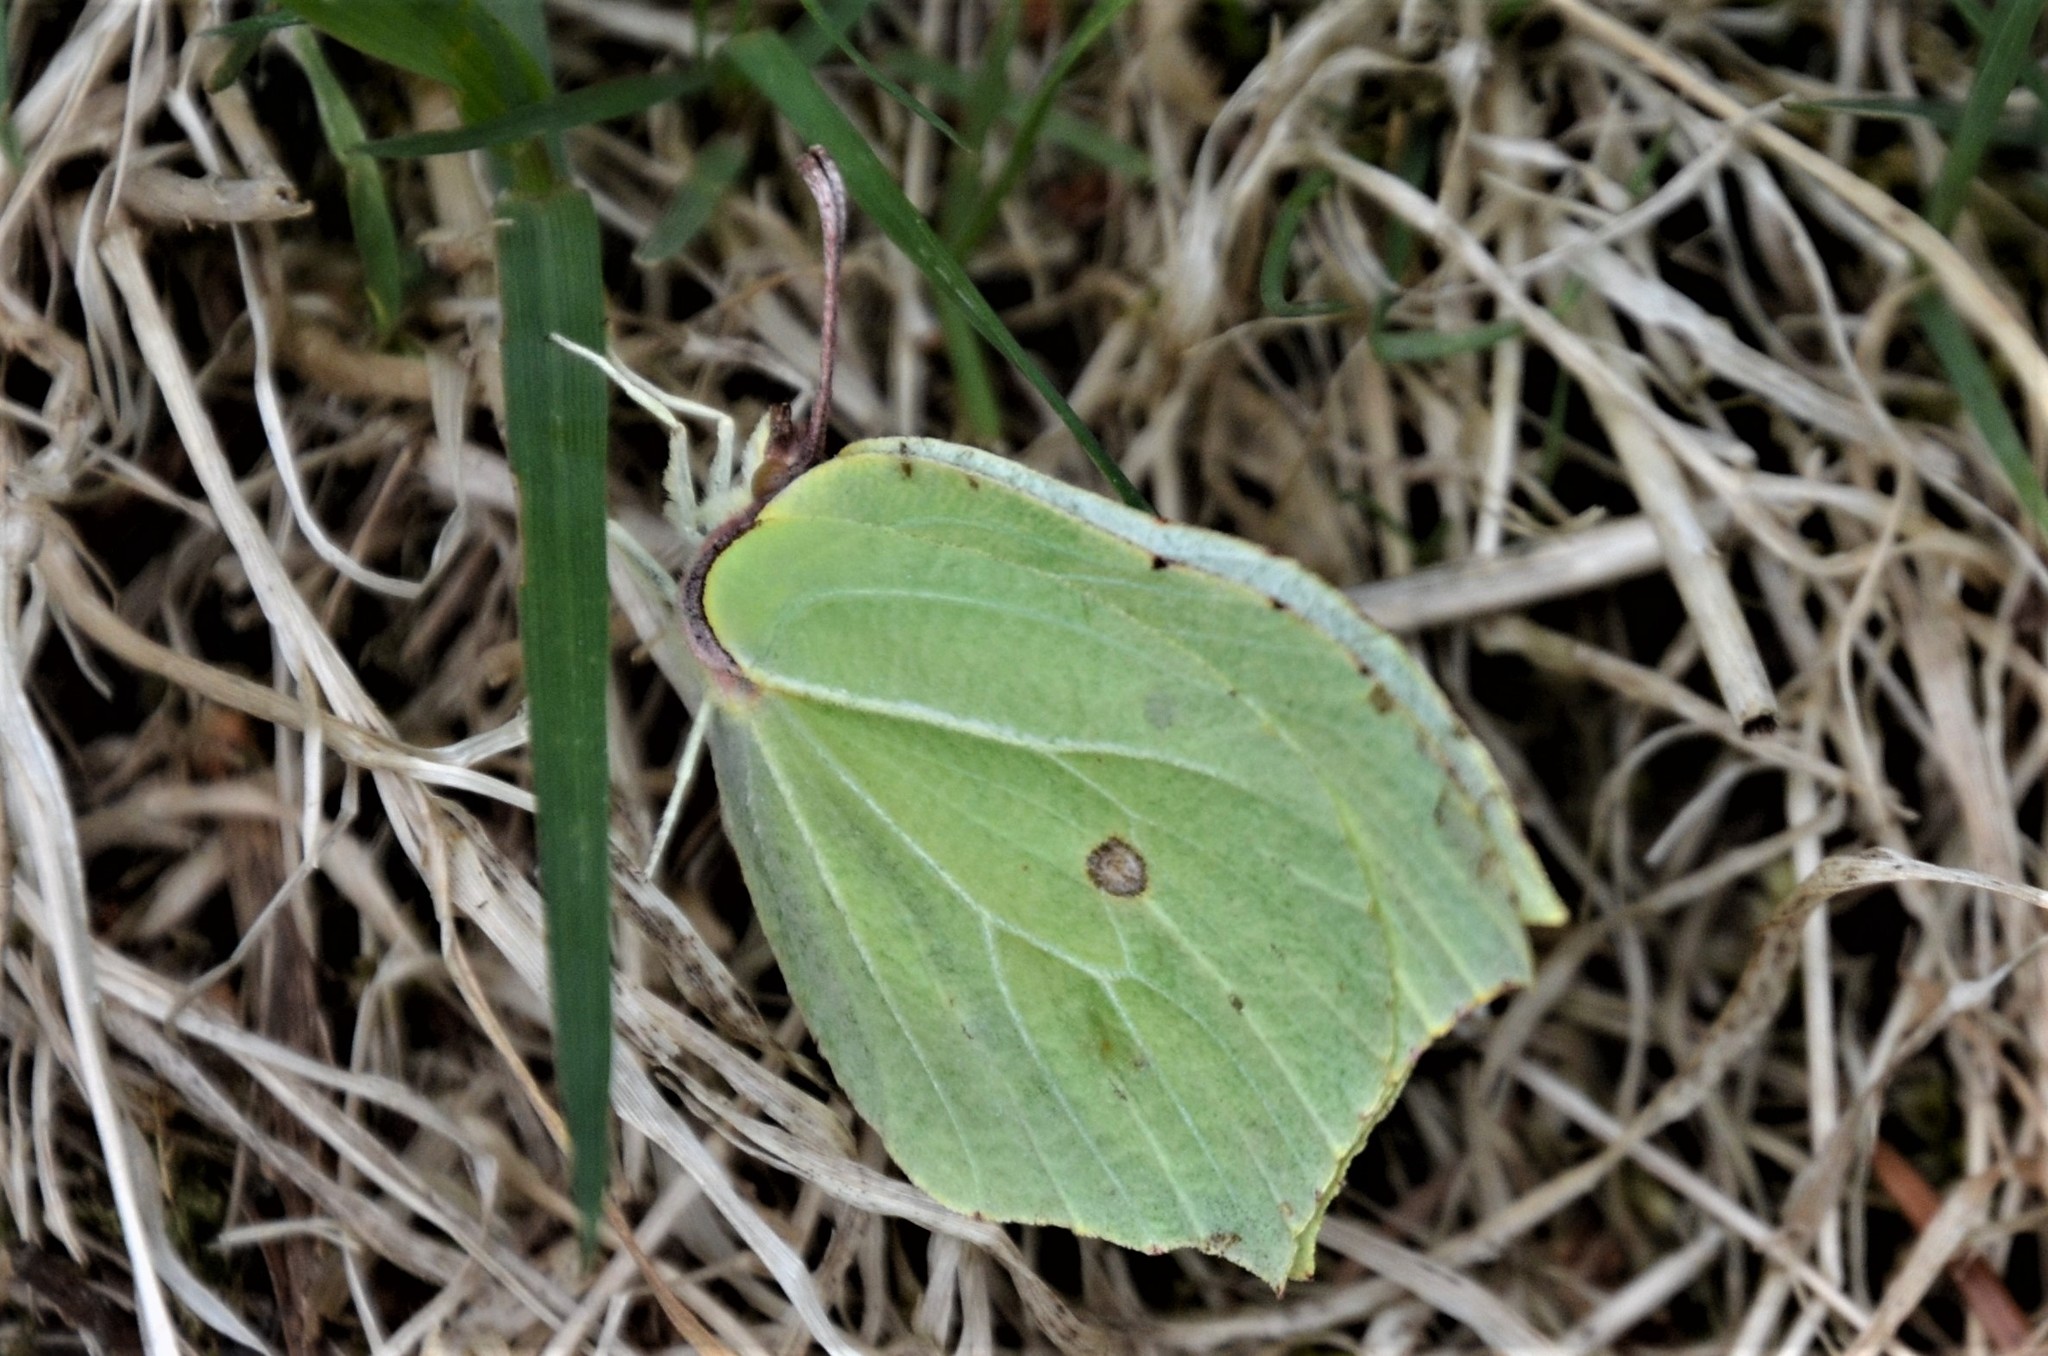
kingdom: Animalia
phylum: Arthropoda
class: Insecta
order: Lepidoptera
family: Pieridae
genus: Gonepteryx
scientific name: Gonepteryx rhamni
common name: Brimstone
